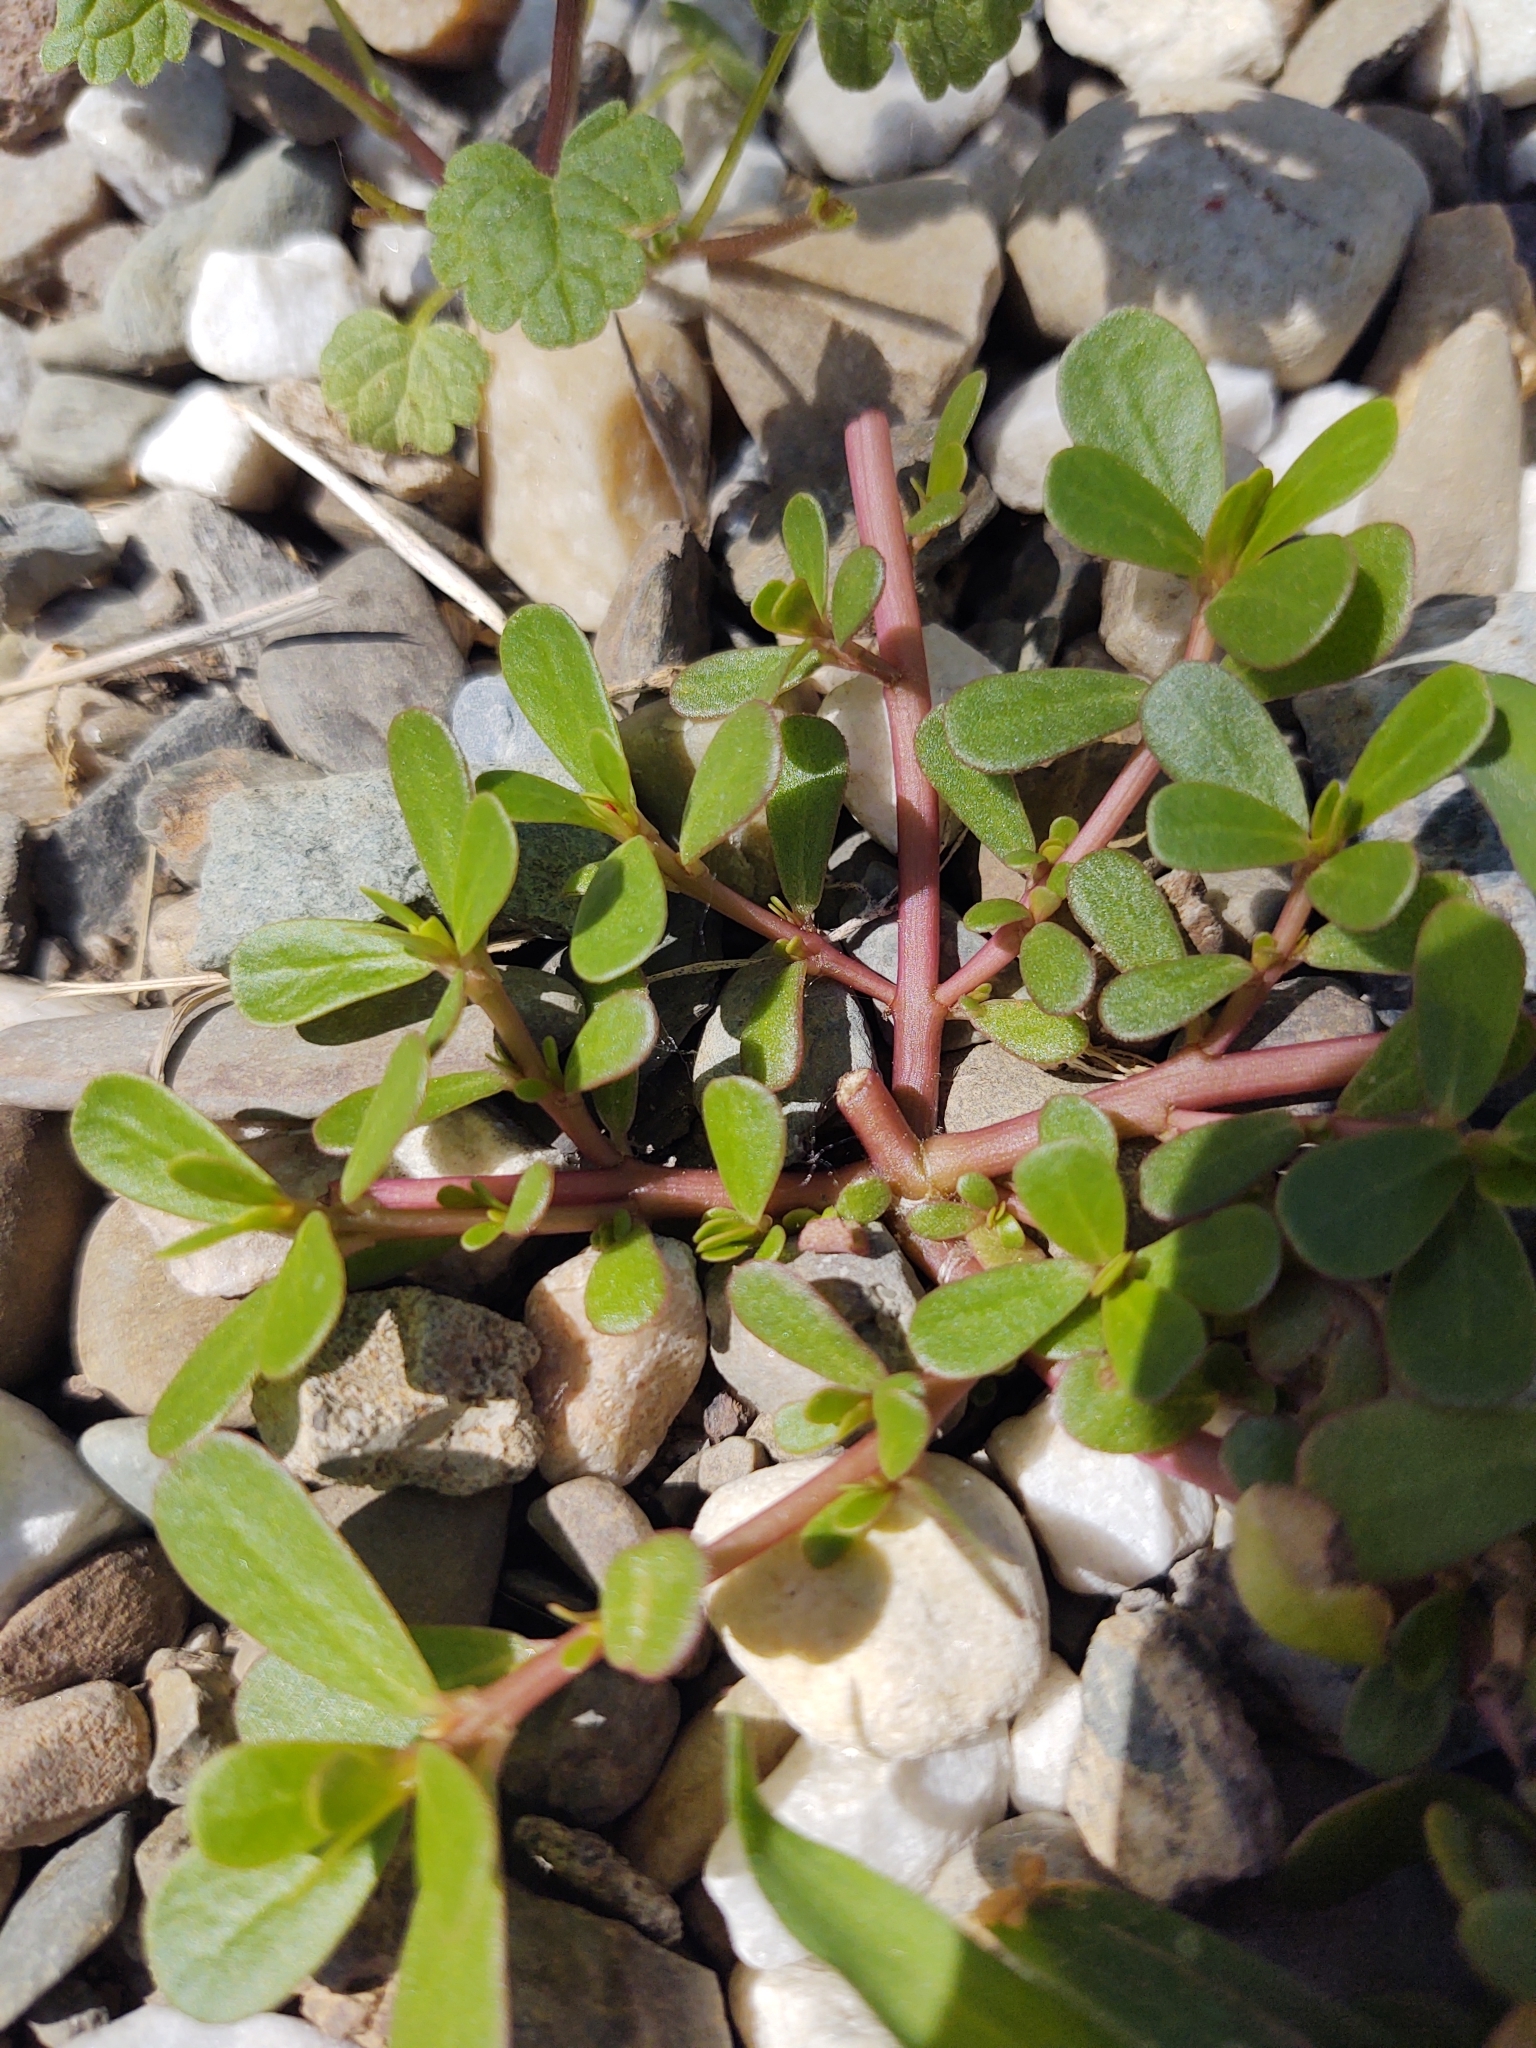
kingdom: Plantae
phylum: Tracheophyta
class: Magnoliopsida
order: Caryophyllales
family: Portulacaceae
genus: Portulaca
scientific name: Portulaca oleracea
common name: Common purslane
